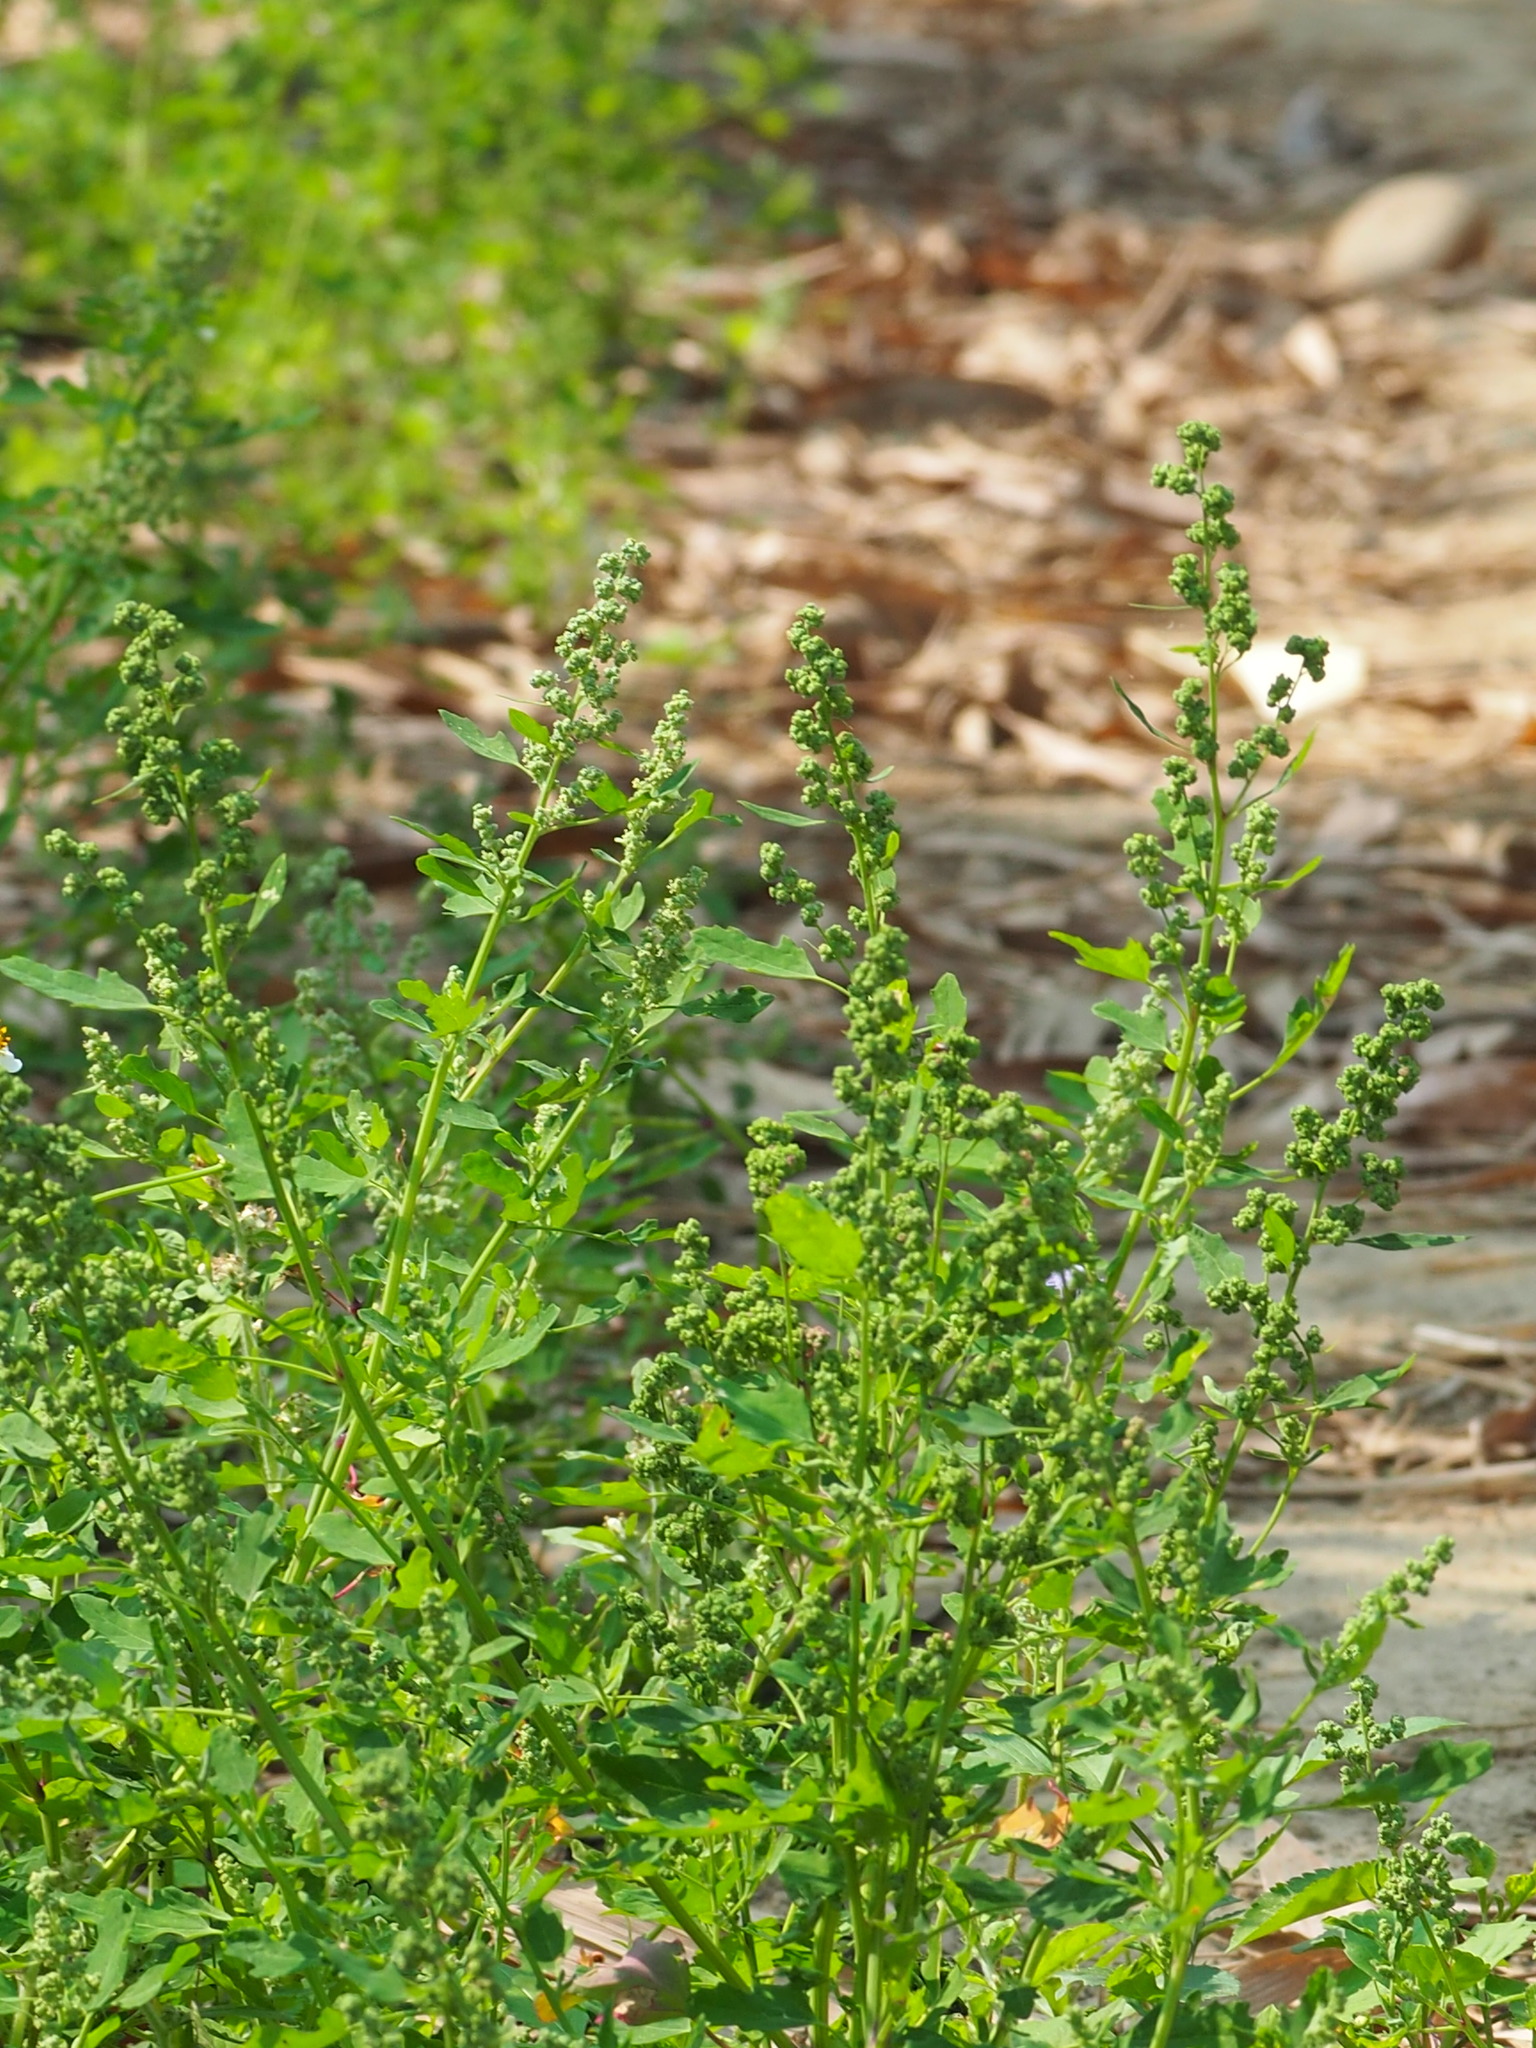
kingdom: Plantae
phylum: Tracheophyta
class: Magnoliopsida
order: Caryophyllales
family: Amaranthaceae
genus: Chenopodium
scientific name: Chenopodium ficifolium
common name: Fig-leaved goosefoot
